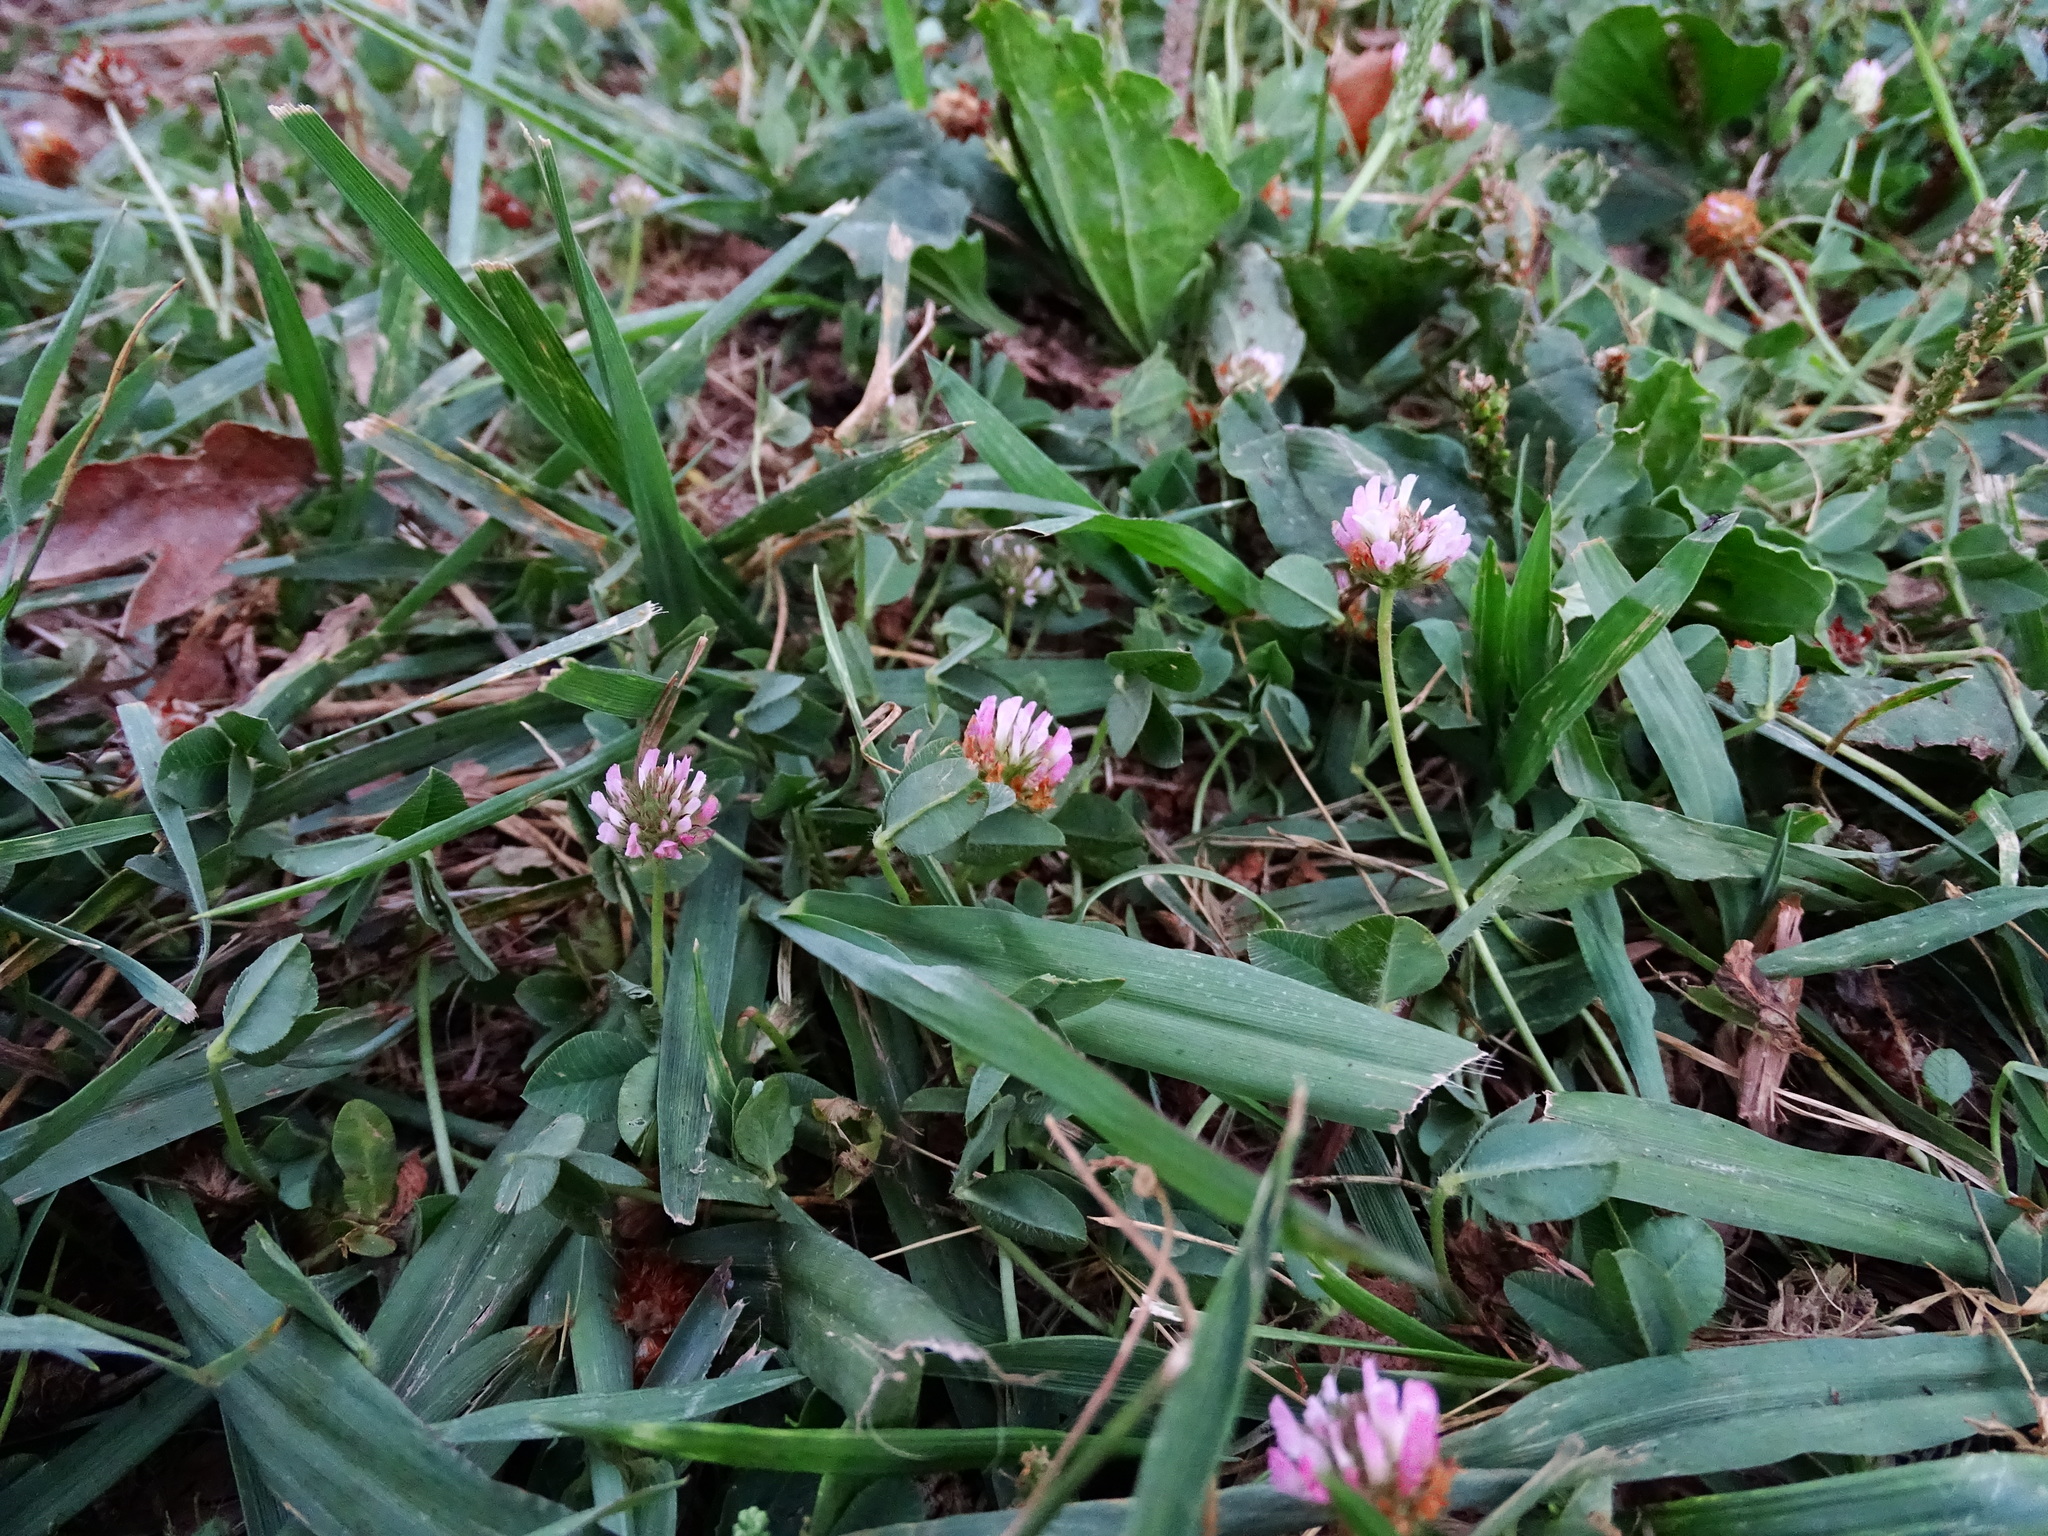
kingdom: Plantae
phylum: Tracheophyta
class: Magnoliopsida
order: Fabales
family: Fabaceae
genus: Trifolium
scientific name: Trifolium fragiferum
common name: Strawberry clover
